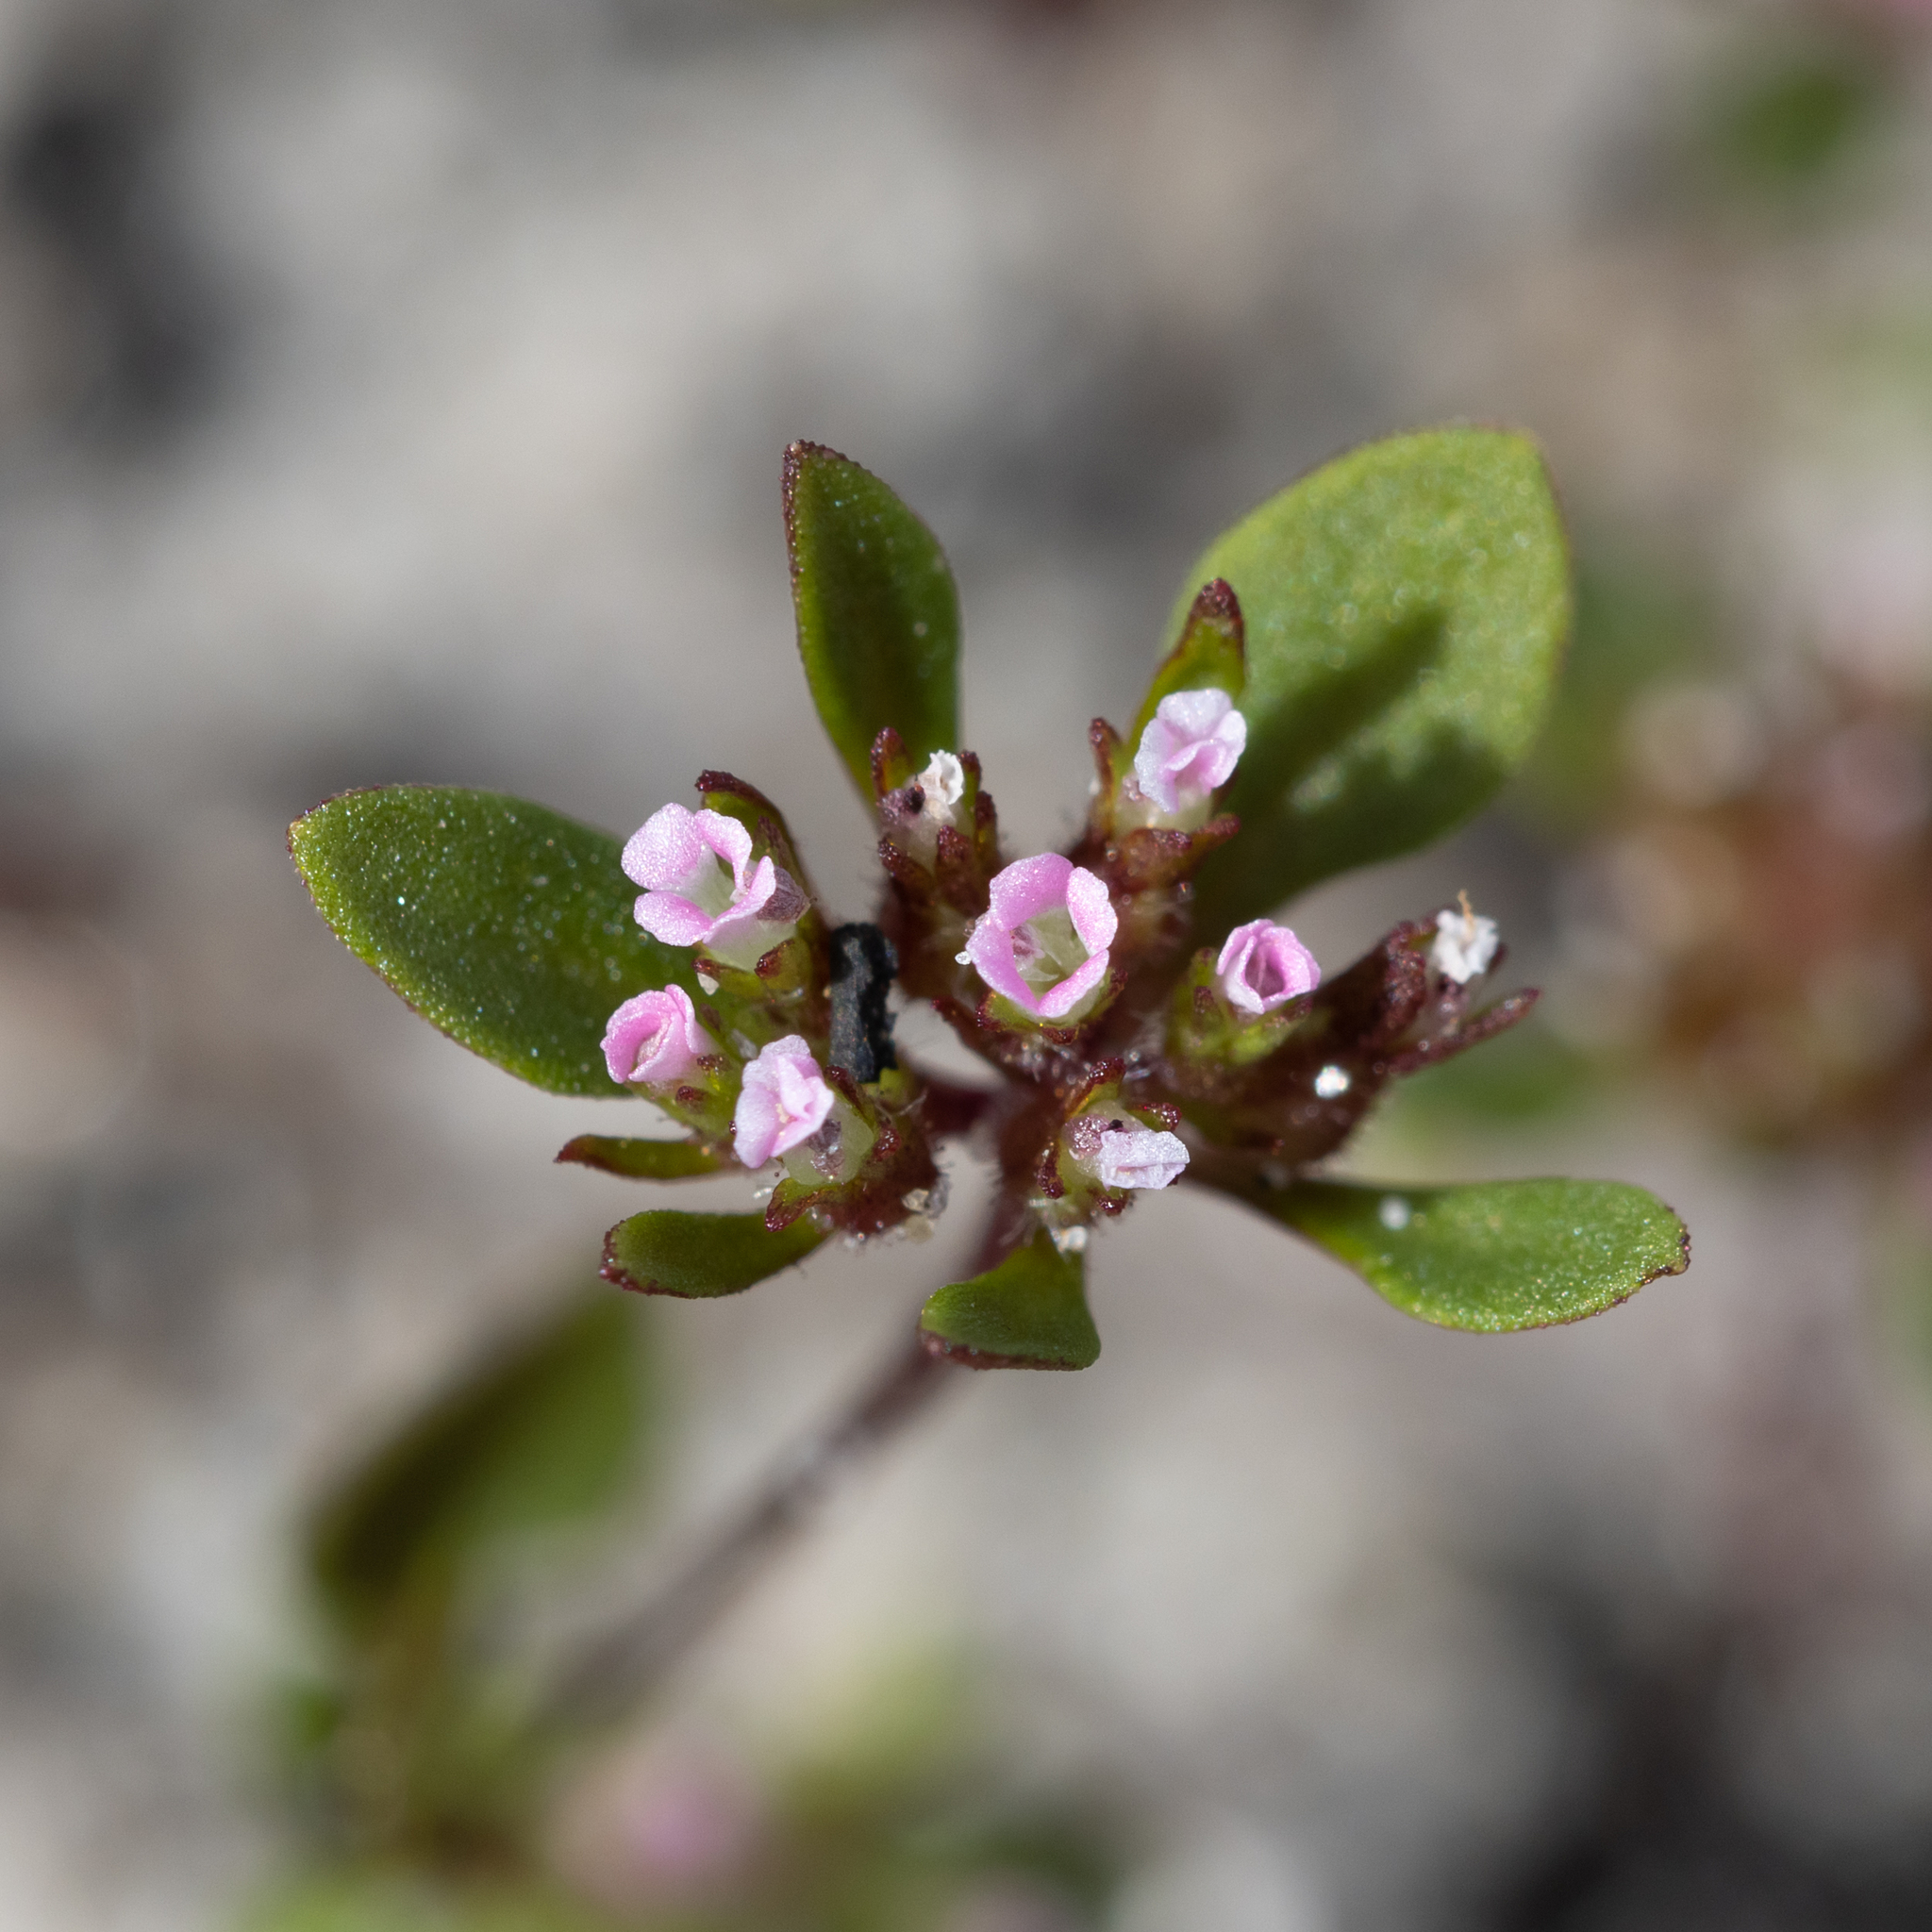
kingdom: Plantae
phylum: Tracheophyta
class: Magnoliopsida
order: Asterales
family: Stylidiaceae
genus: Levenhookia
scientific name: Levenhookia pusilla
